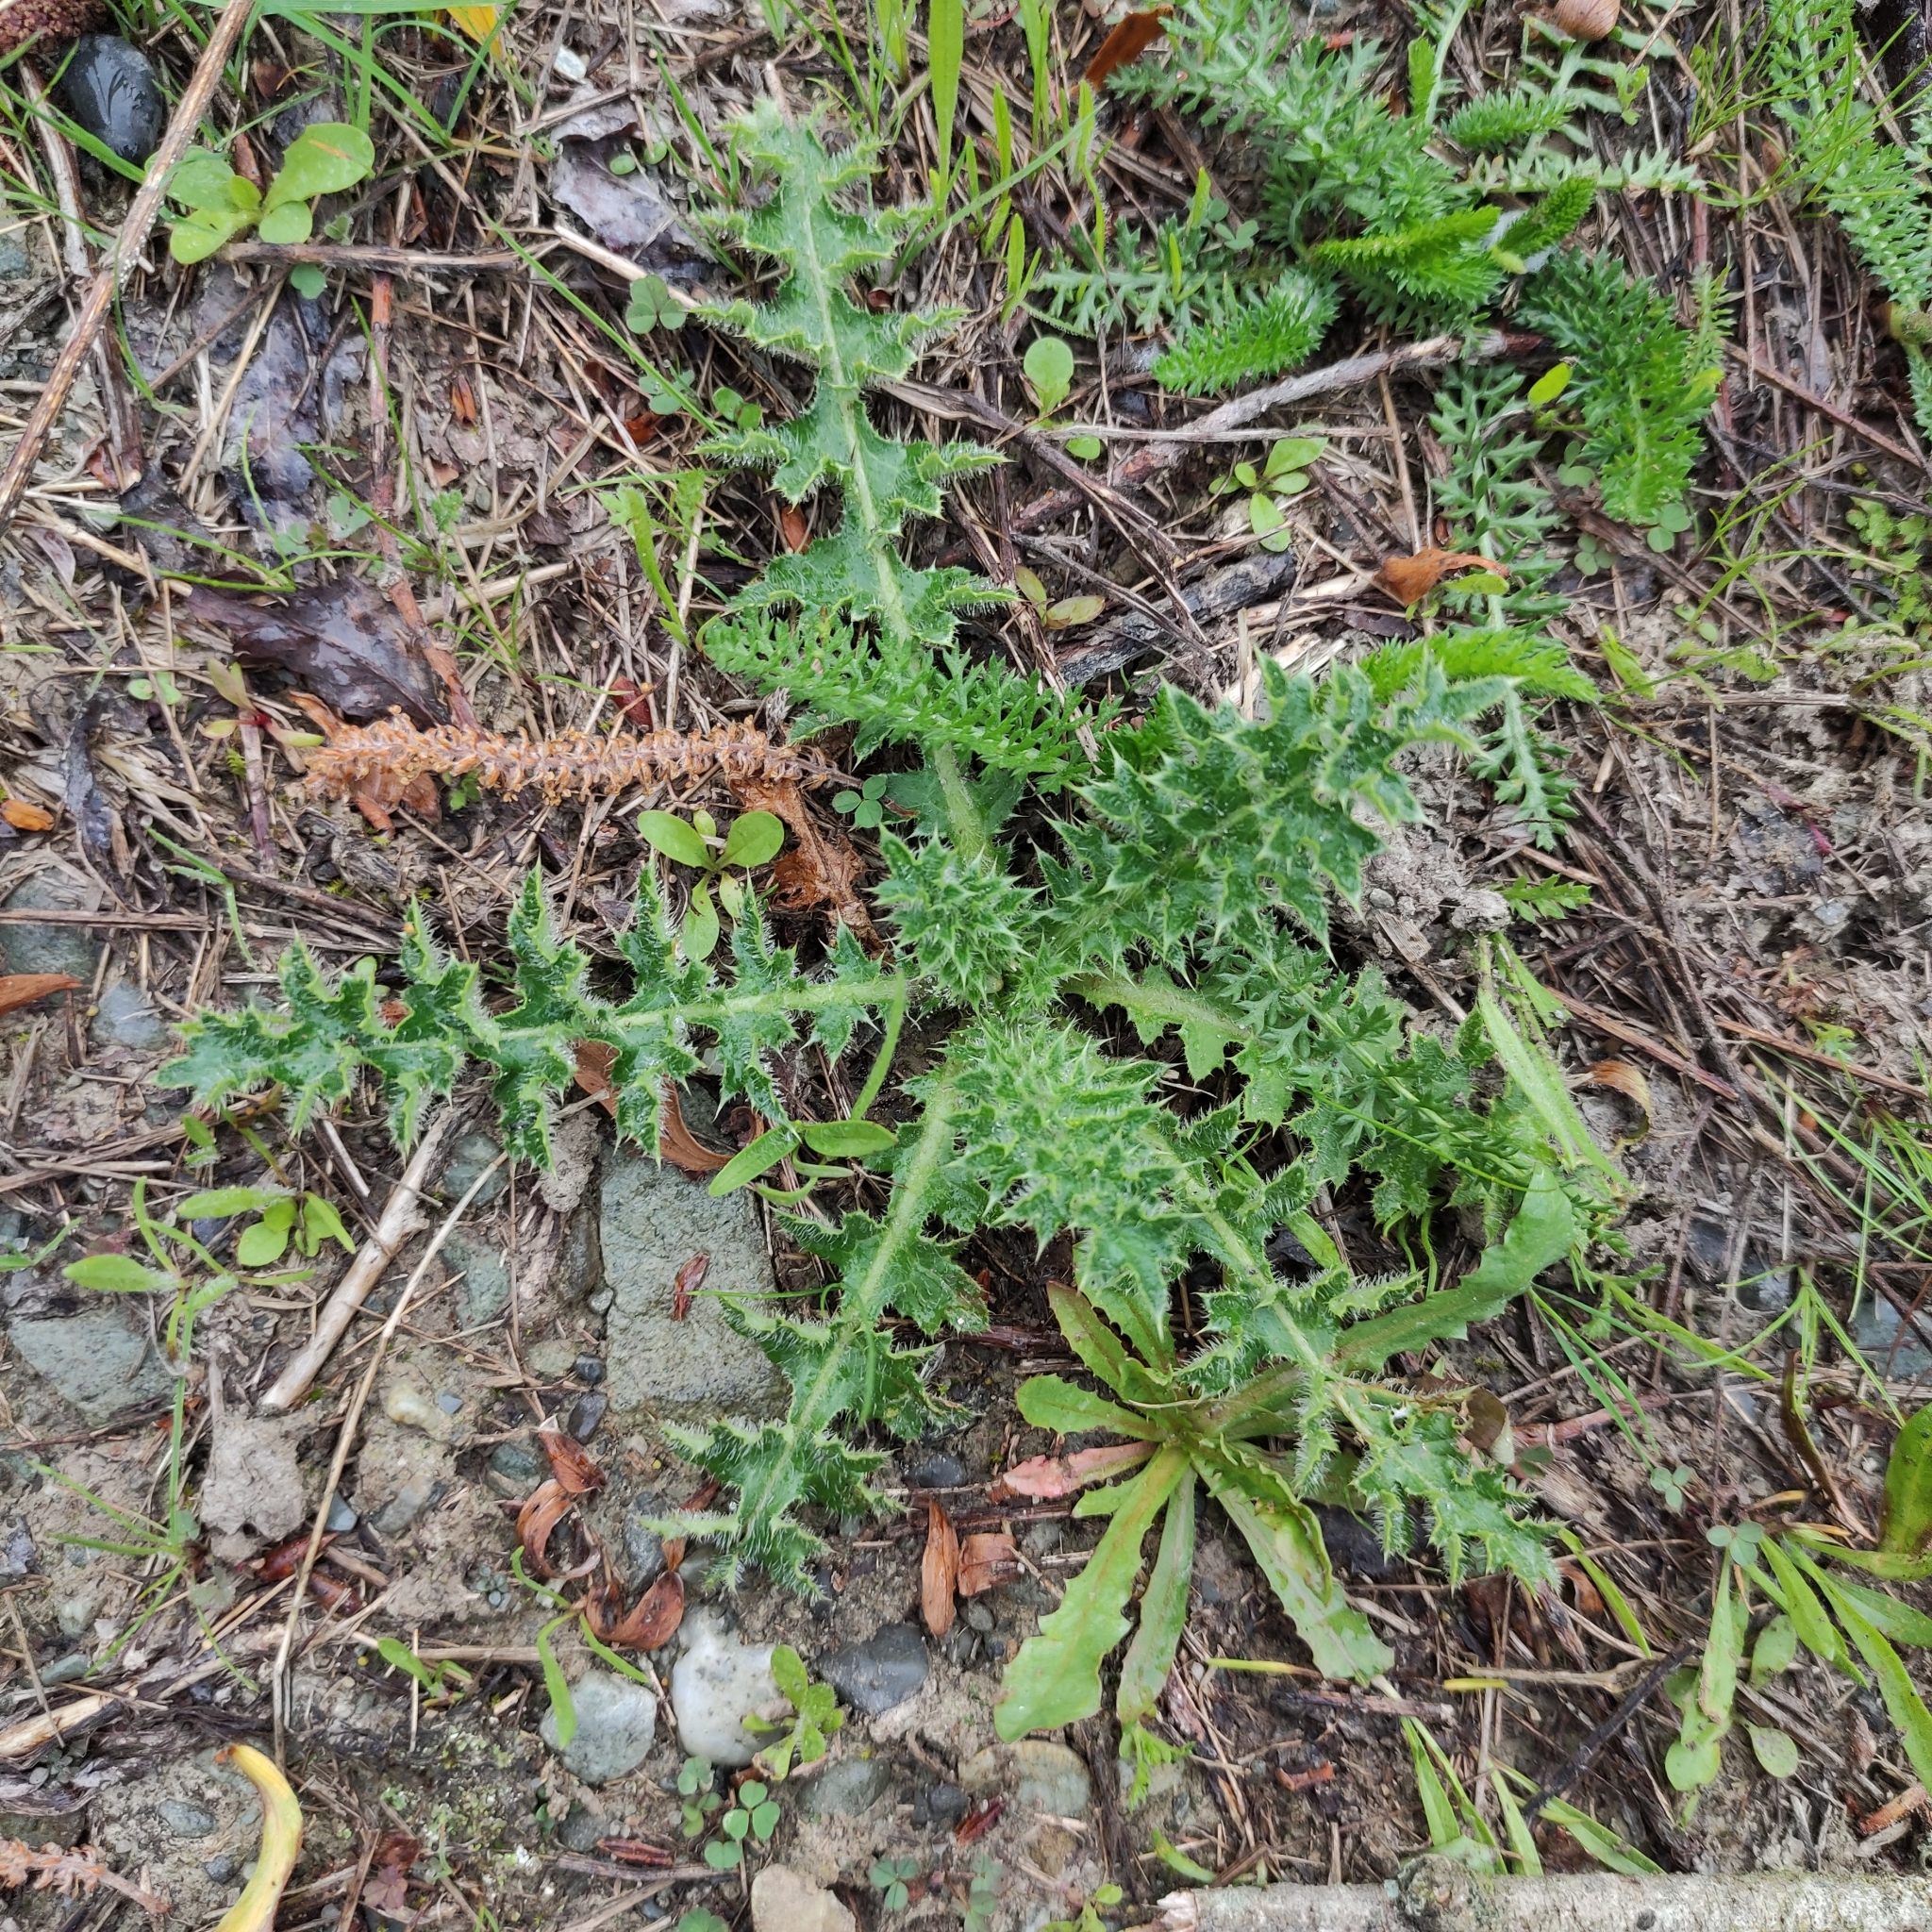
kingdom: Plantae
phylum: Tracheophyta
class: Magnoliopsida
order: Asterales
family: Asteraceae
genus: Cirsium
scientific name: Cirsium arvense
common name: Creeping thistle
